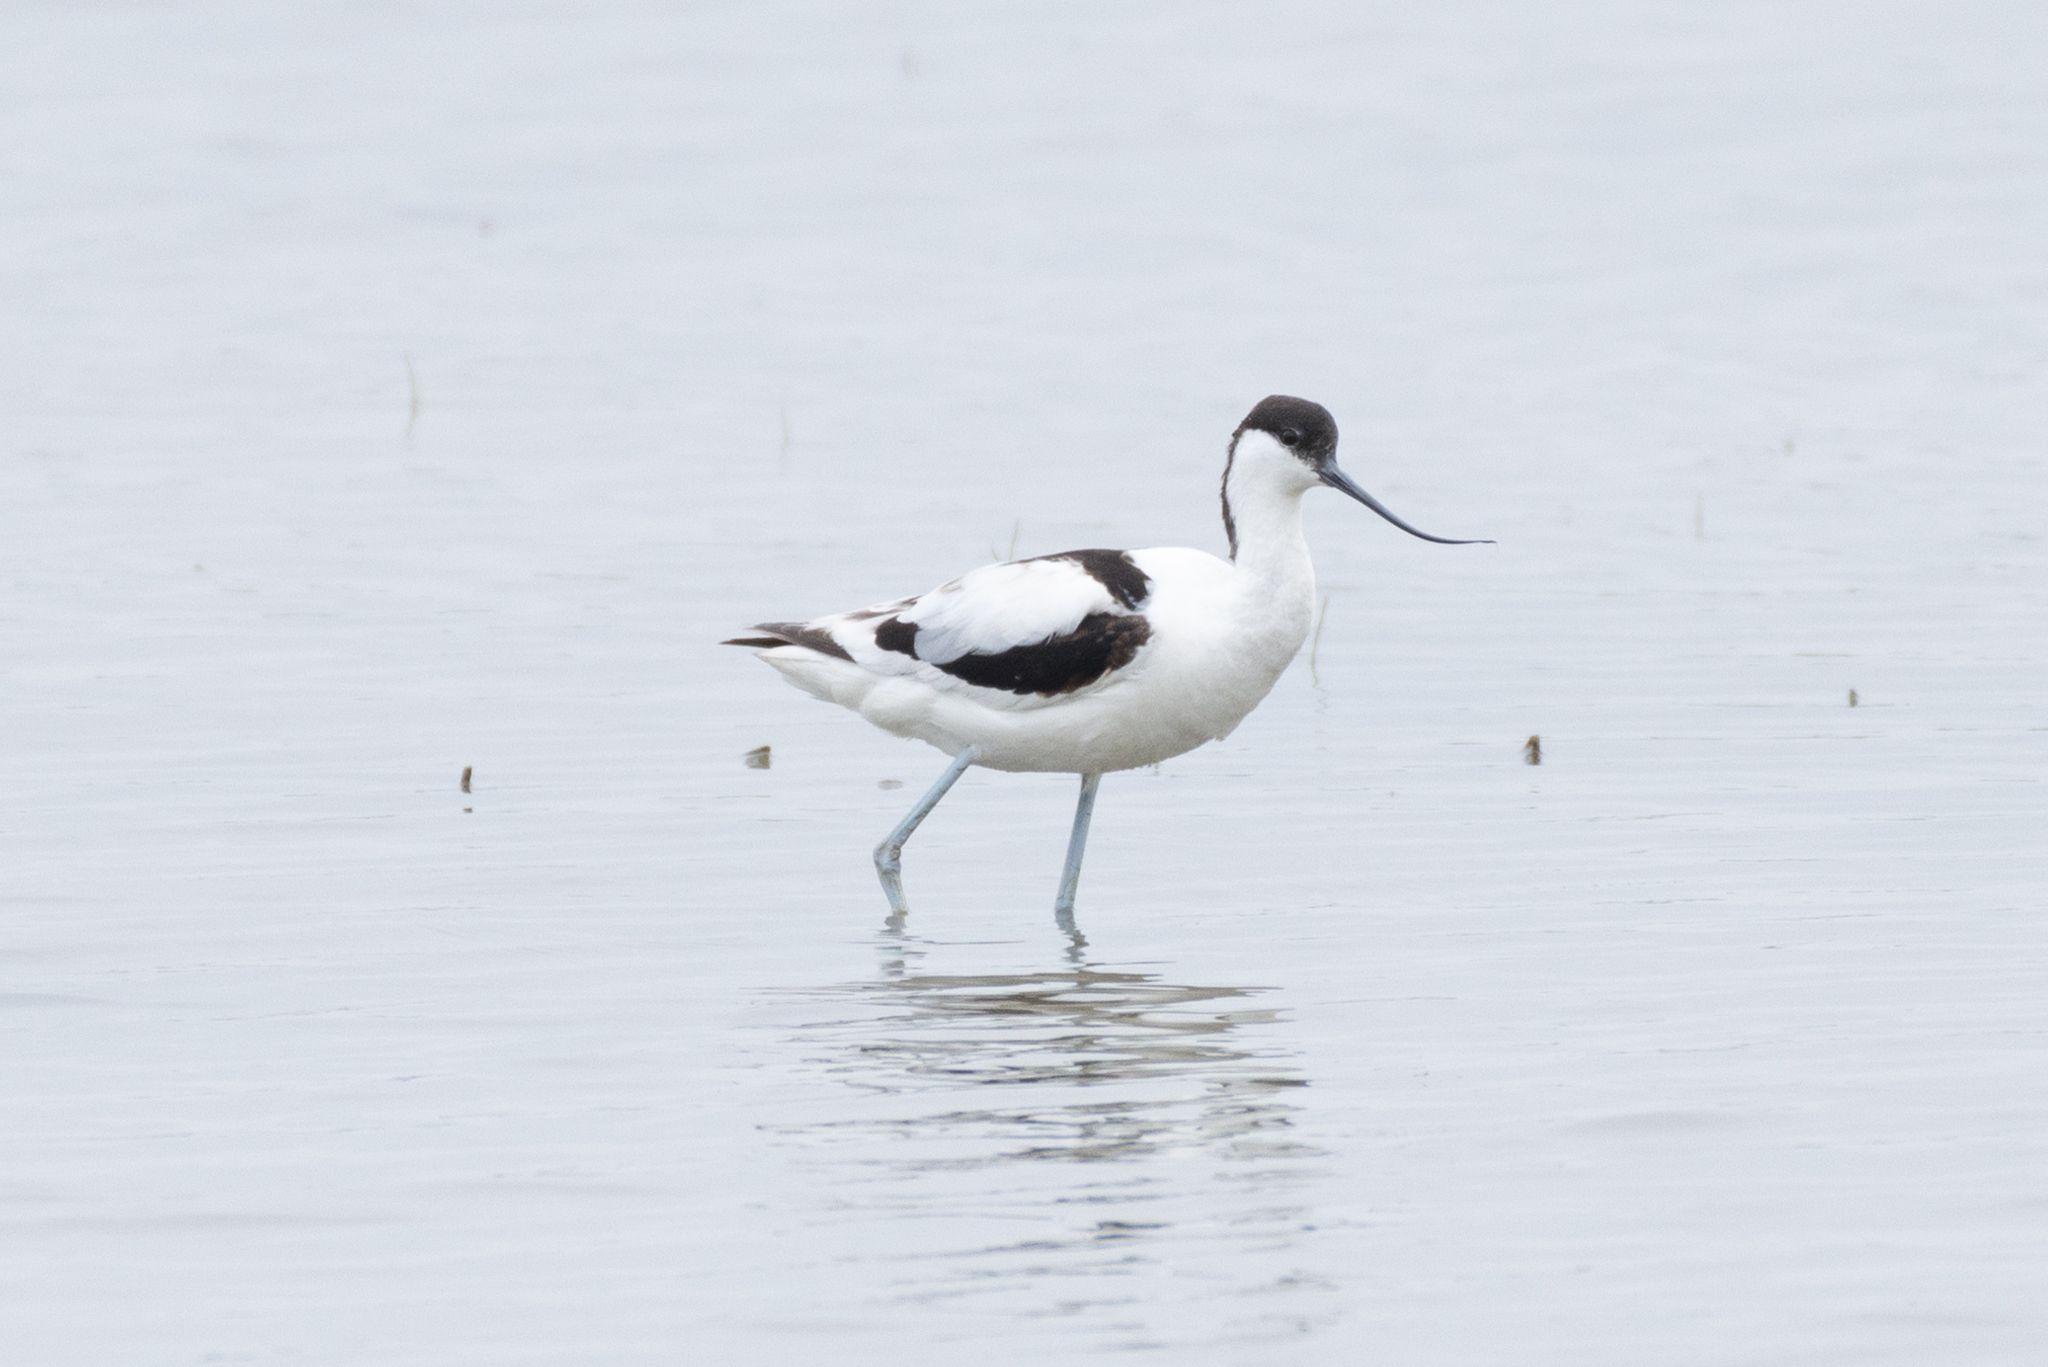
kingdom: Animalia
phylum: Chordata
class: Aves
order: Charadriiformes
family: Recurvirostridae
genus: Recurvirostra
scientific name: Recurvirostra avosetta
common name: Pied avocet
